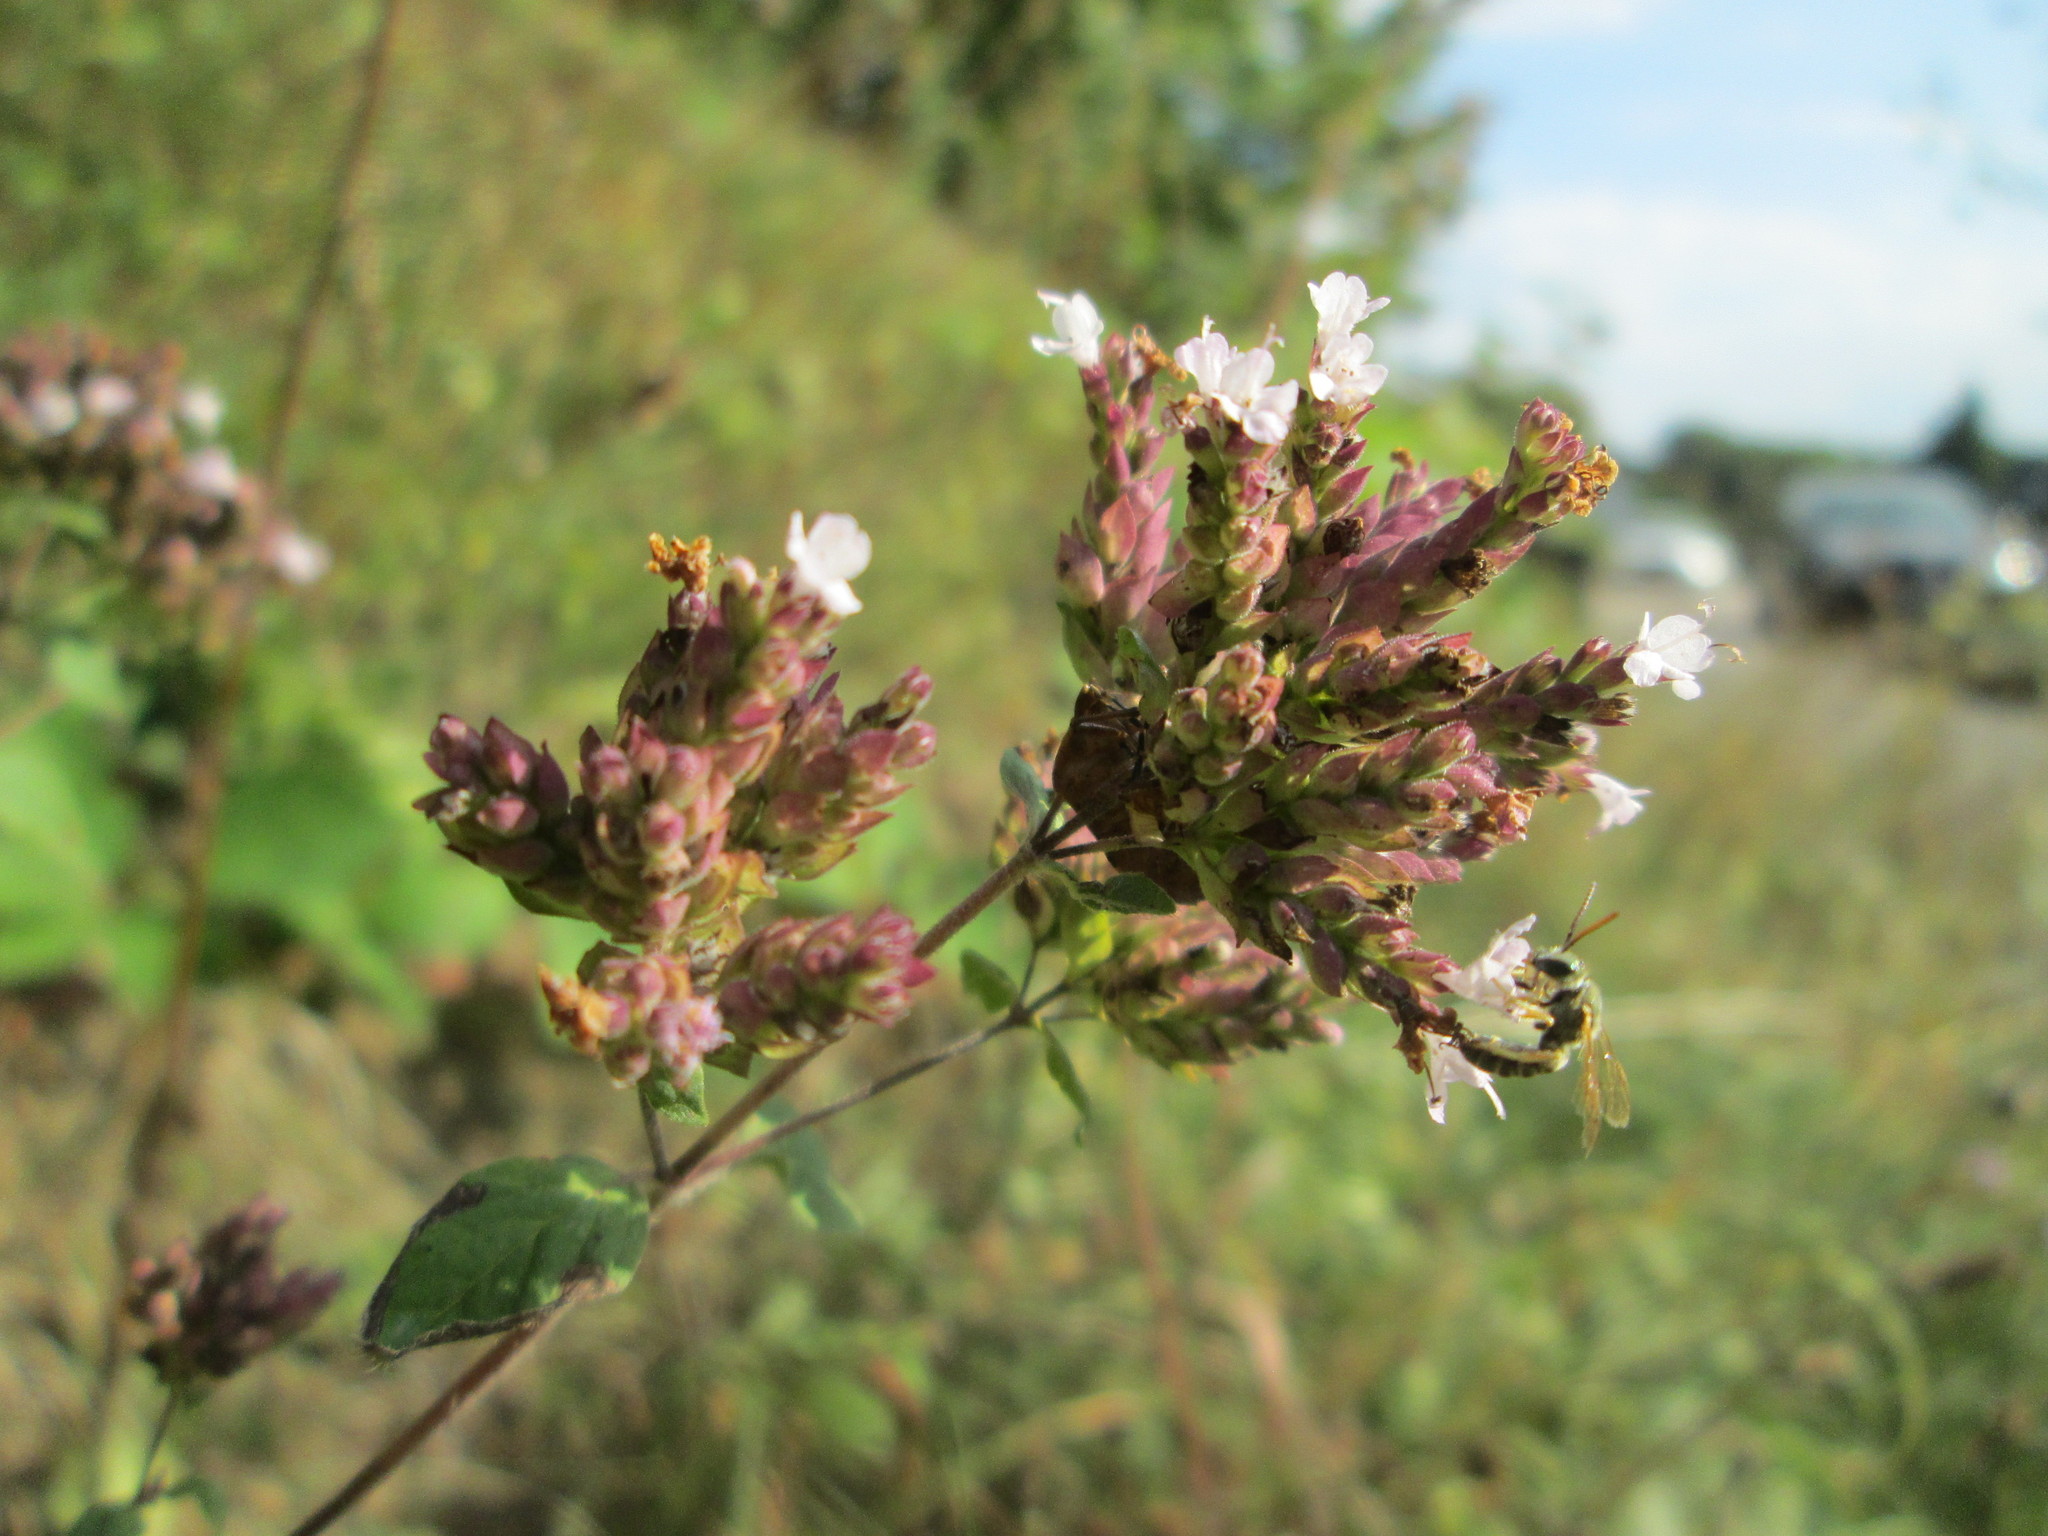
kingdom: Plantae
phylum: Tracheophyta
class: Magnoliopsida
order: Lamiales
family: Lamiaceae
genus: Origanum
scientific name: Origanum vulgare
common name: Wild marjoram
